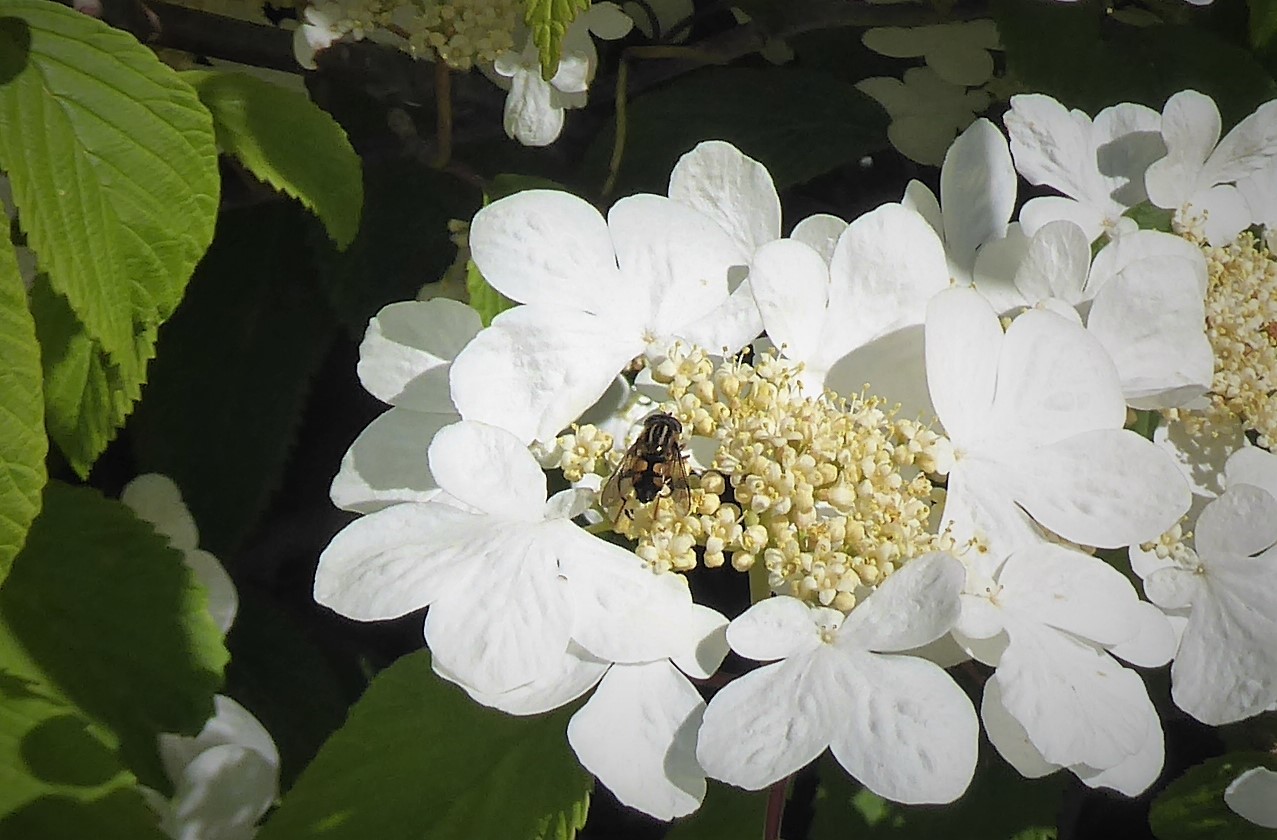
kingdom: Animalia
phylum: Arthropoda
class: Insecta
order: Diptera
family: Syrphidae
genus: Helophilus
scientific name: Helophilus antipodus
